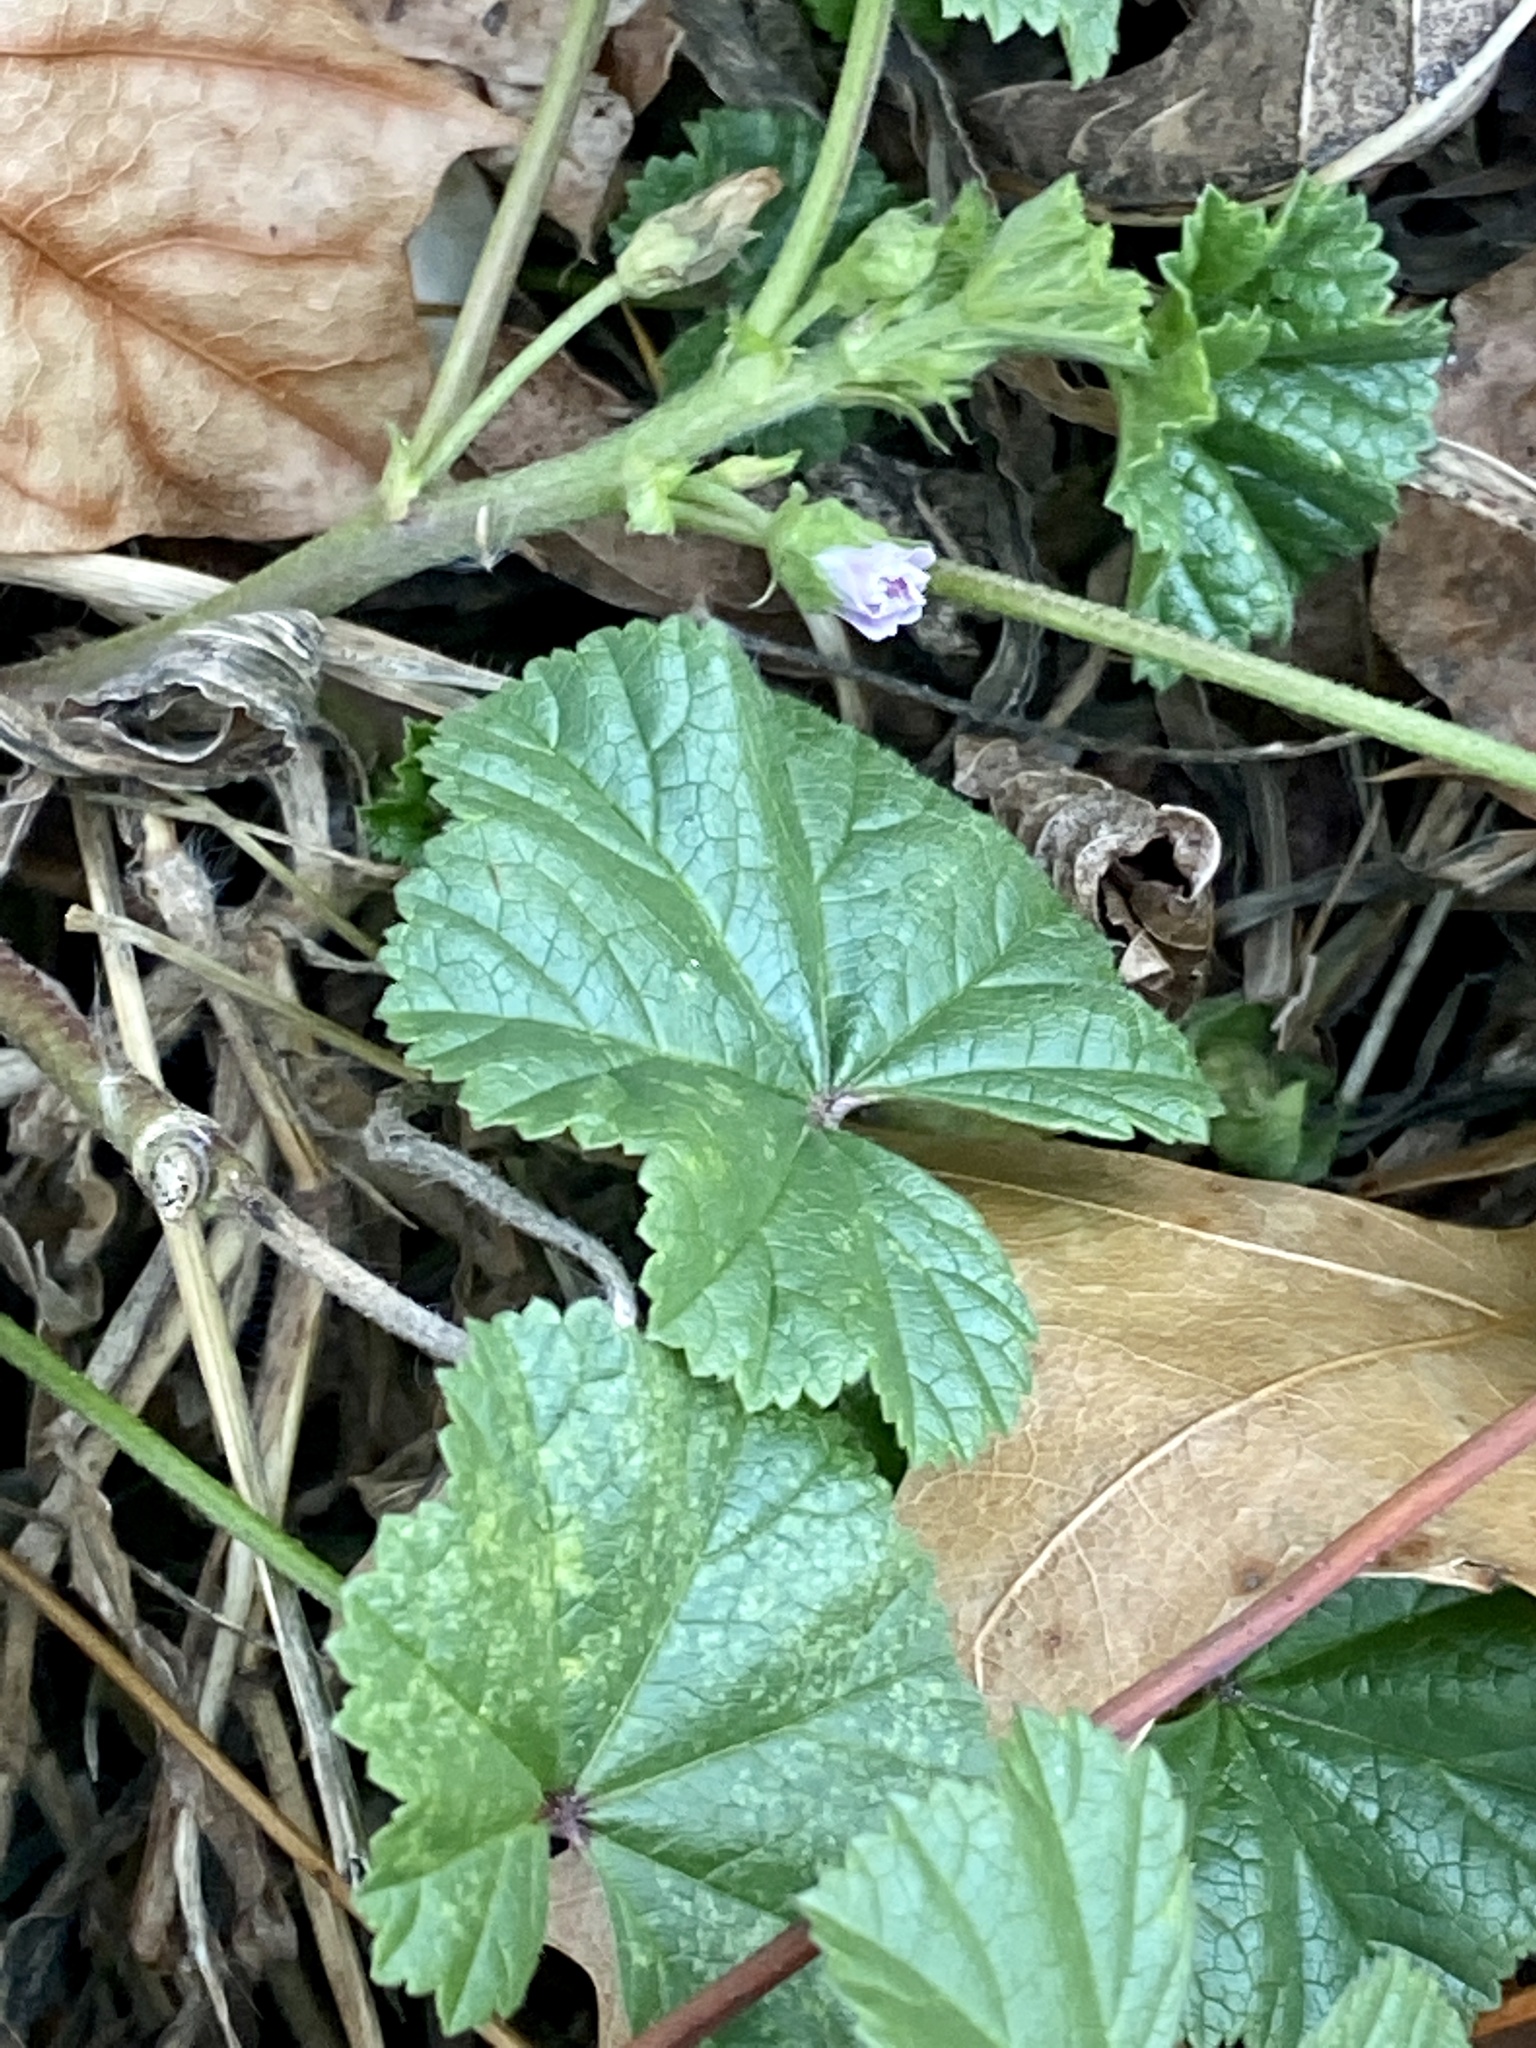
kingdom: Plantae
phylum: Tracheophyta
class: Magnoliopsida
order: Malvales
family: Malvaceae
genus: Malva
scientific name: Malva neglecta
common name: Common mallow
